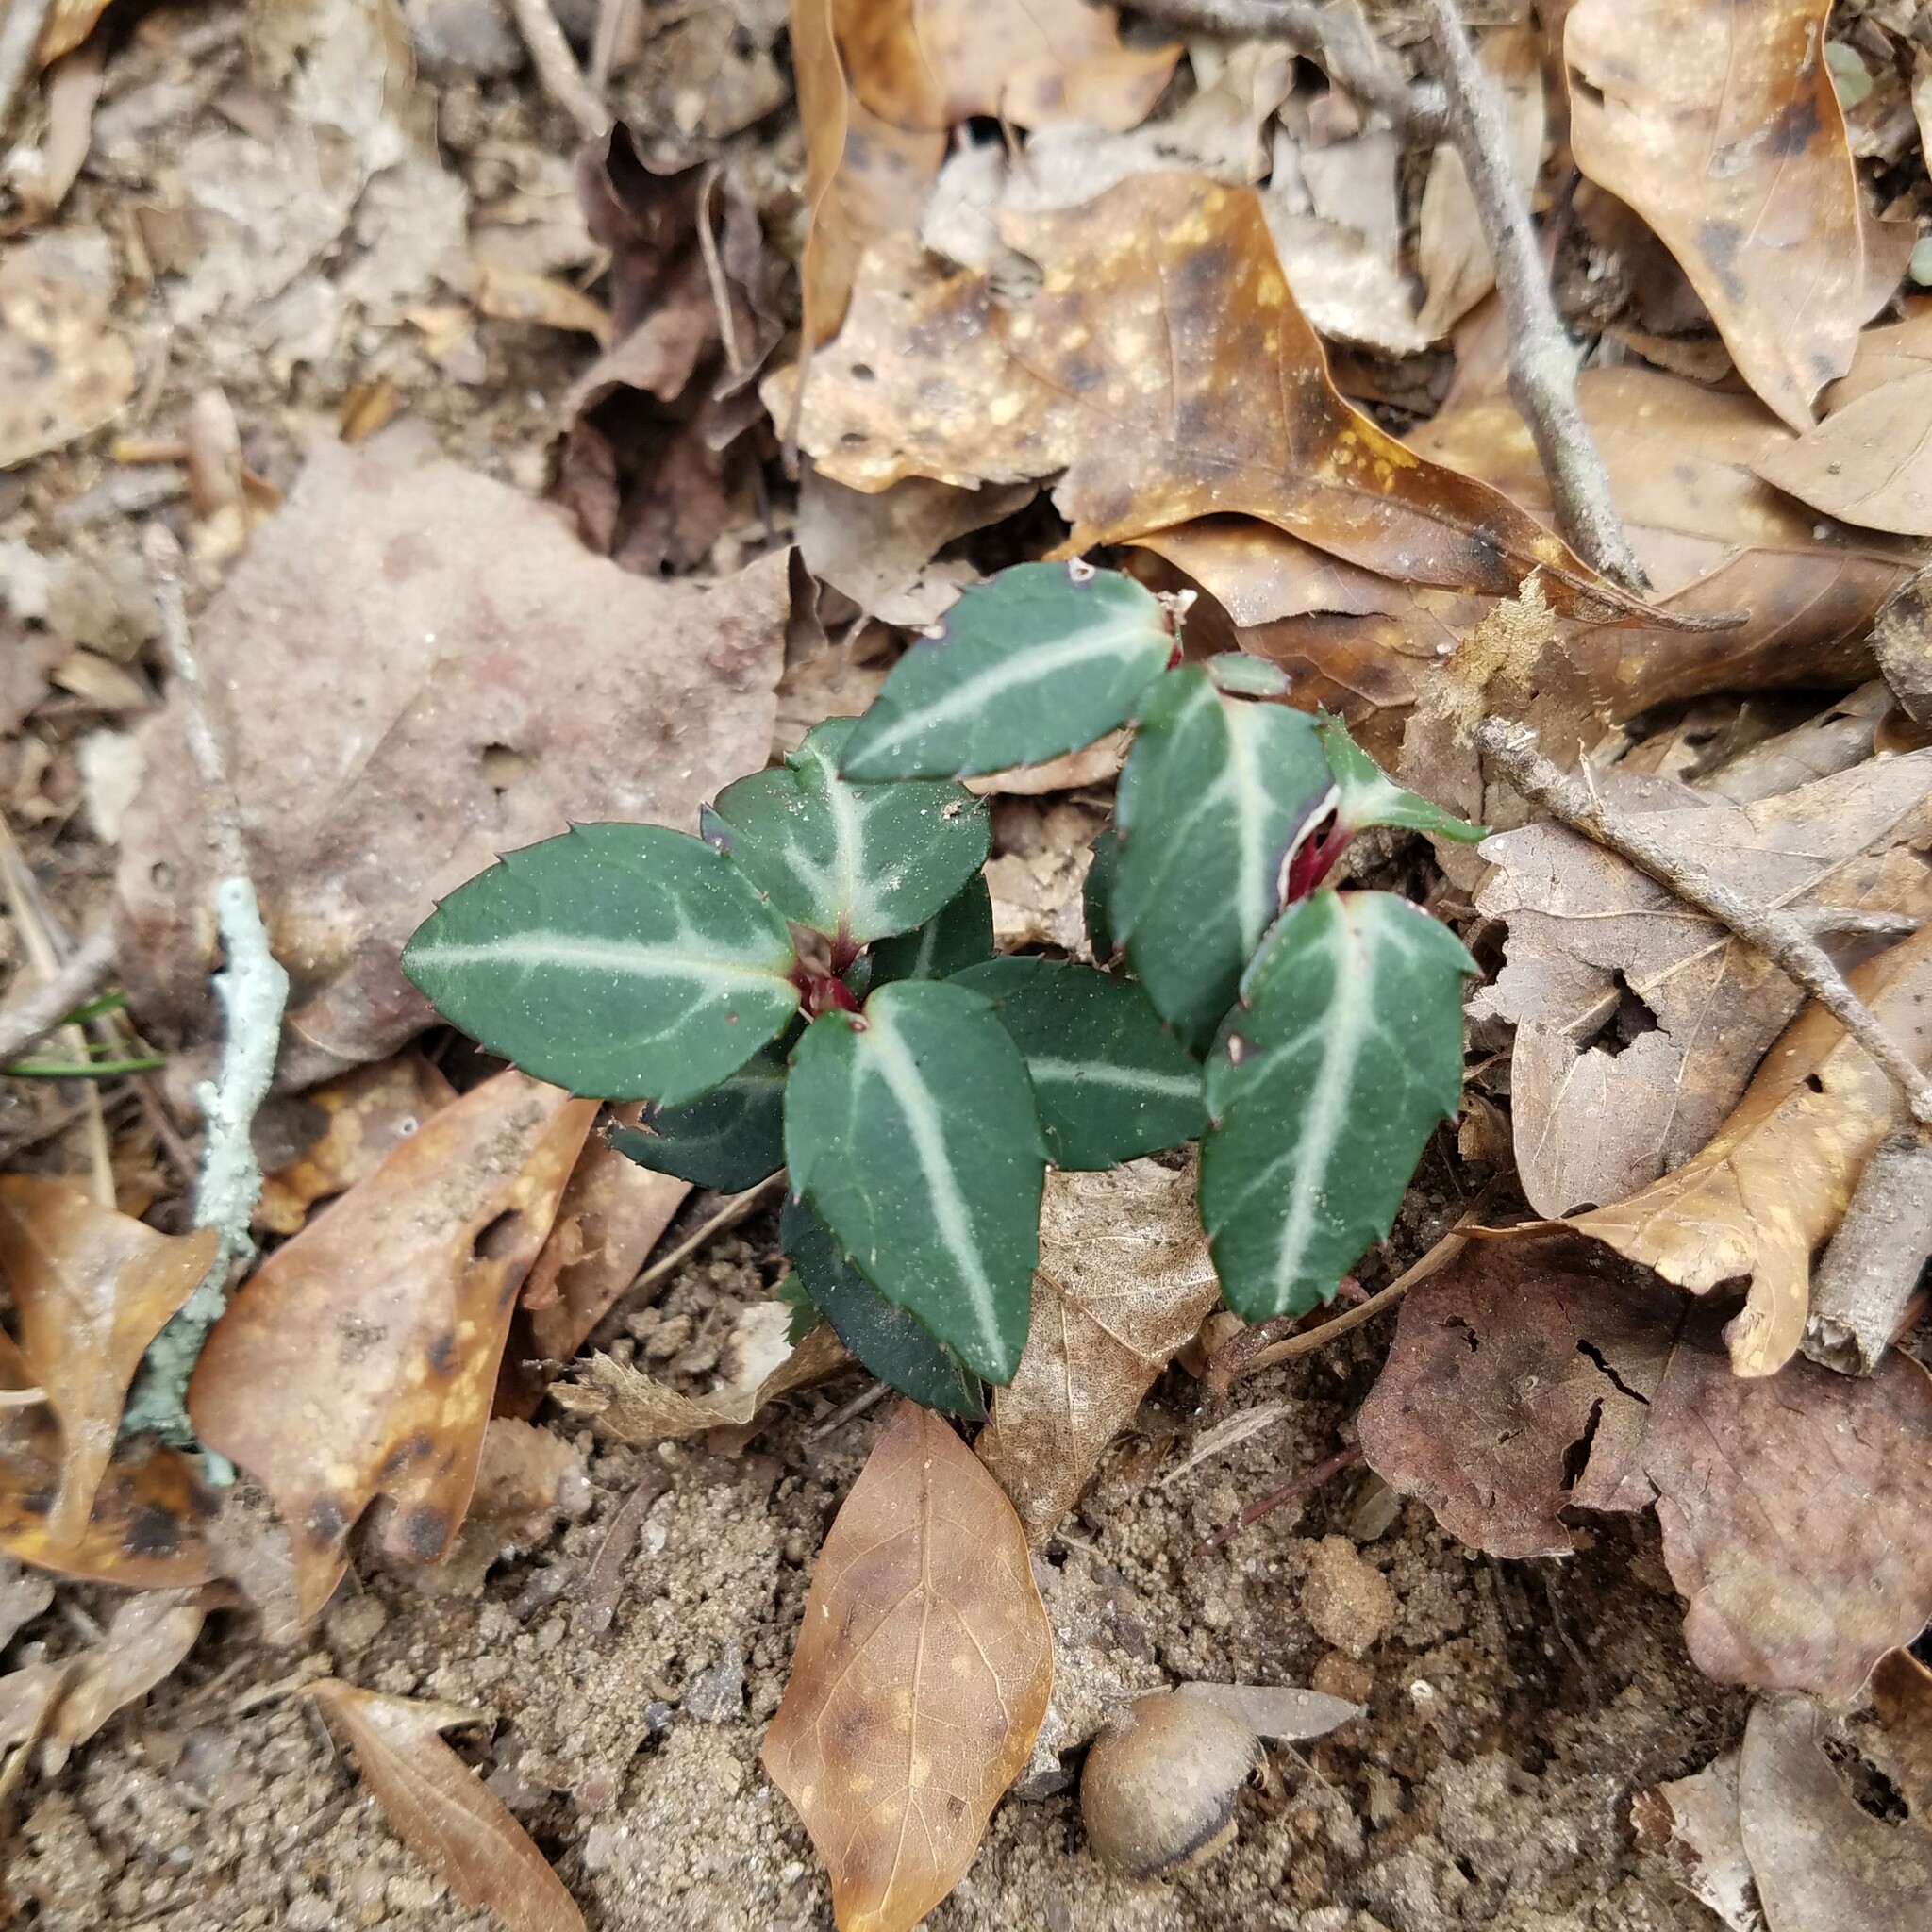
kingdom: Plantae
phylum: Tracheophyta
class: Magnoliopsida
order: Ericales
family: Ericaceae
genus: Chimaphila
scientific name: Chimaphila maculata
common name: Spotted pipsissewa
